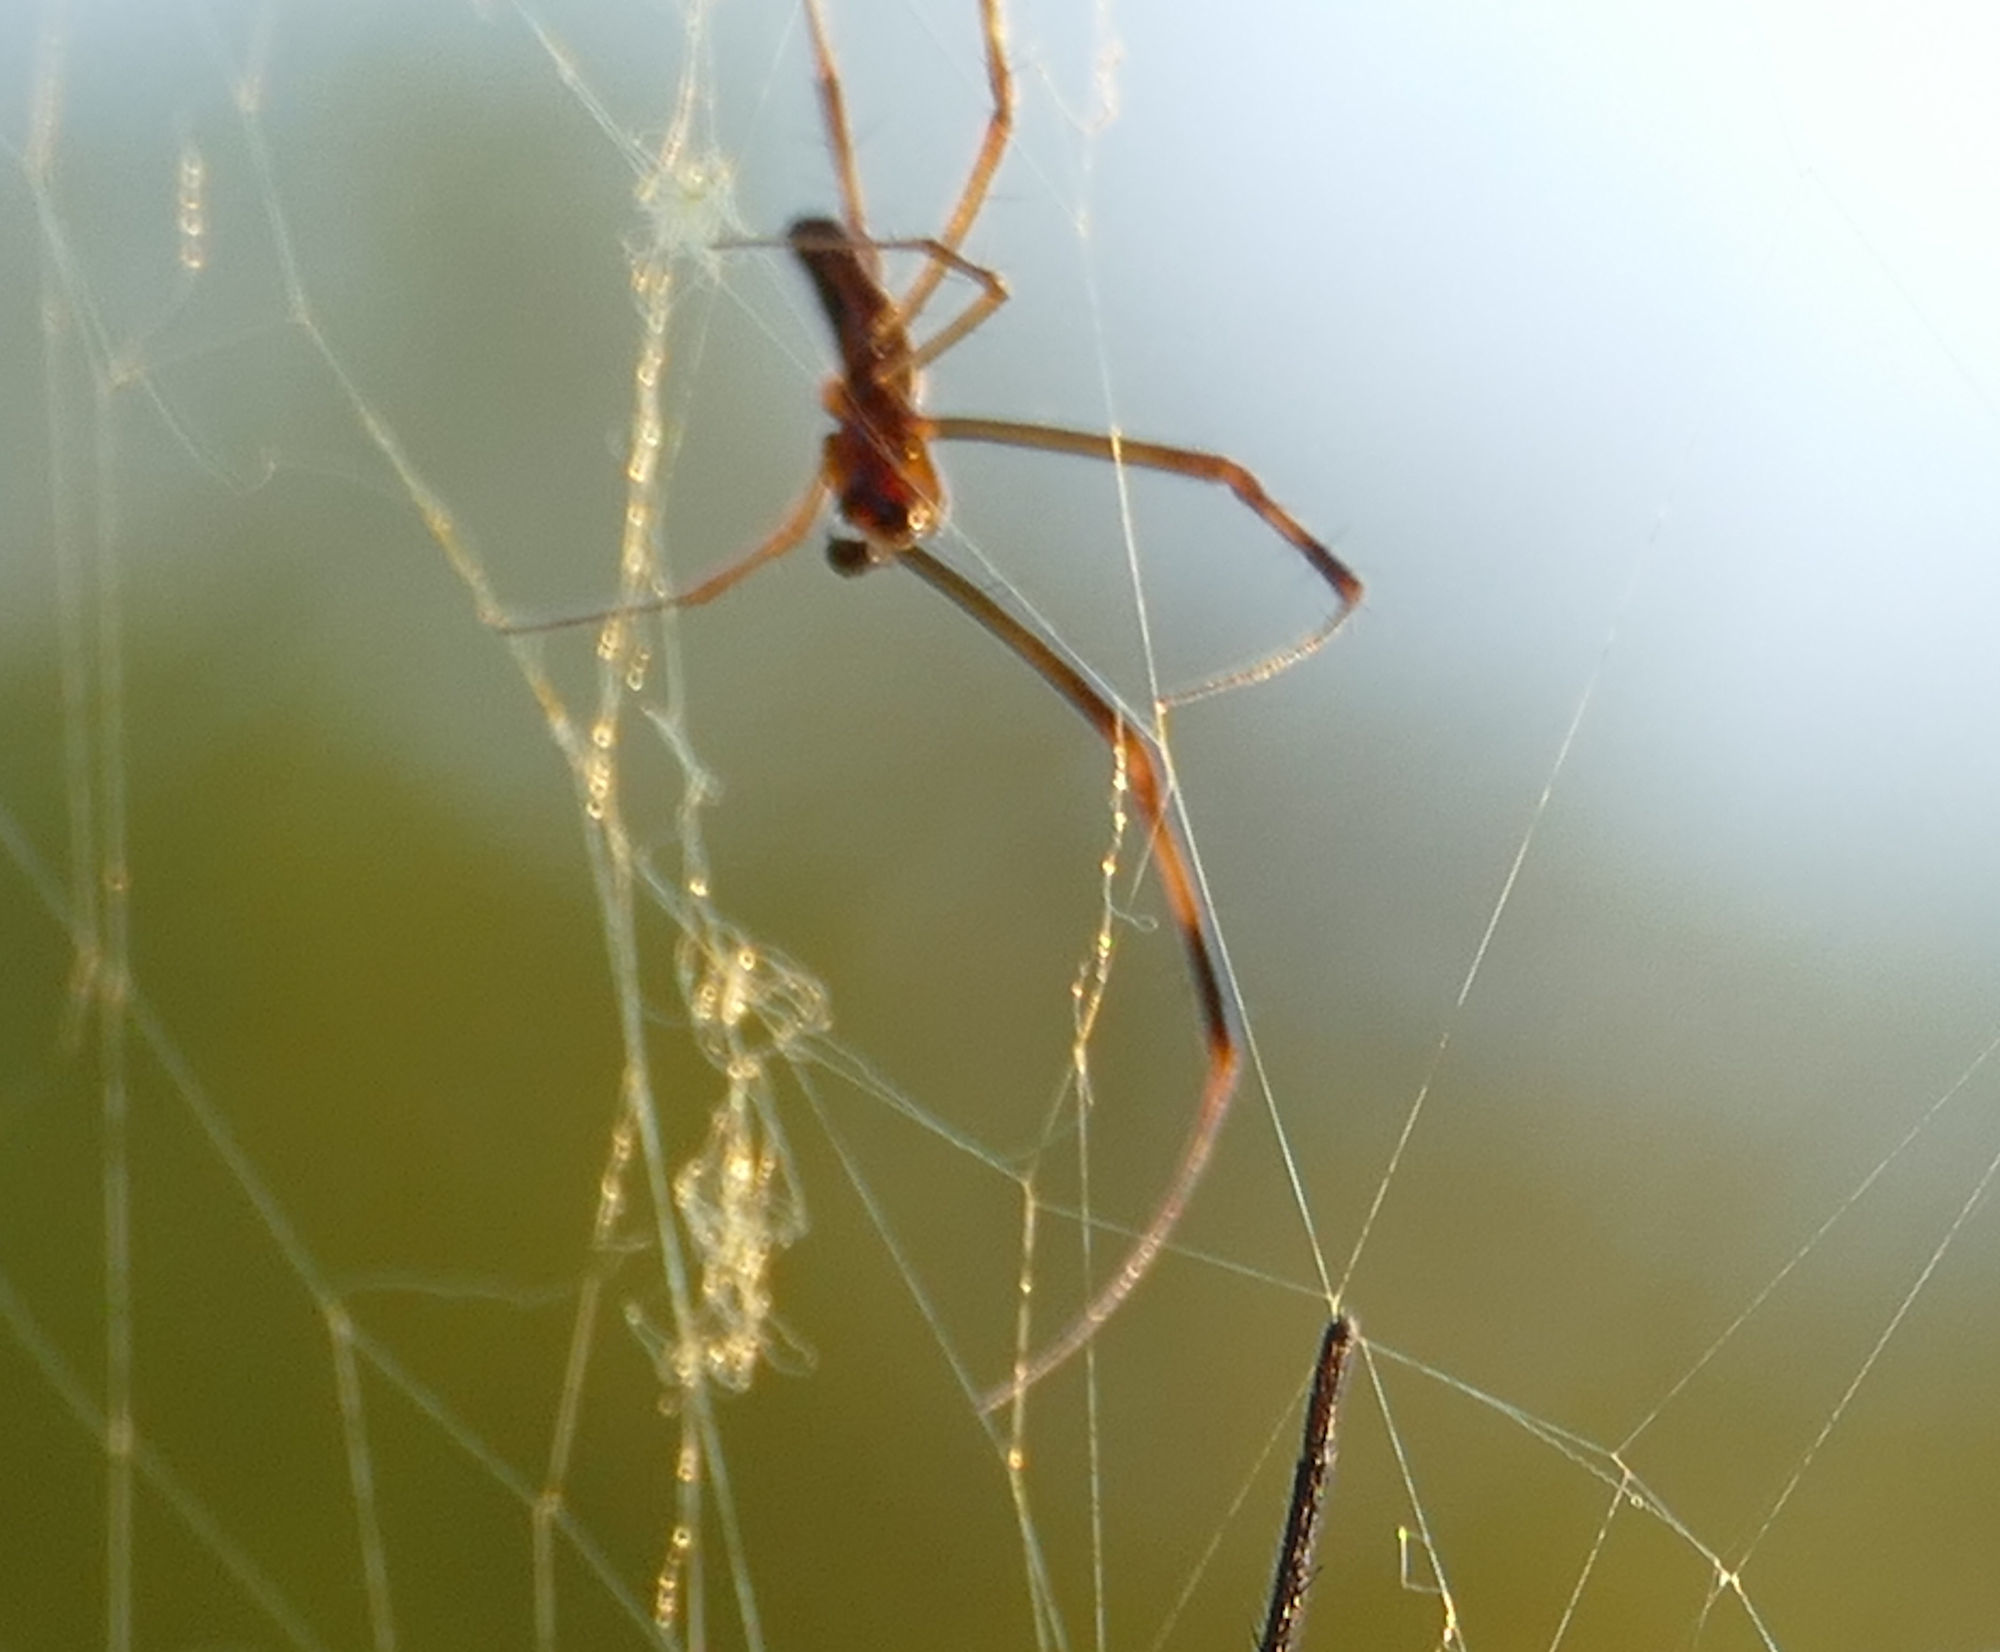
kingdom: Animalia
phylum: Arthropoda
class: Arachnida
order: Araneae
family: Araneidae
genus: Trichonephila
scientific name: Trichonephila clavipes
